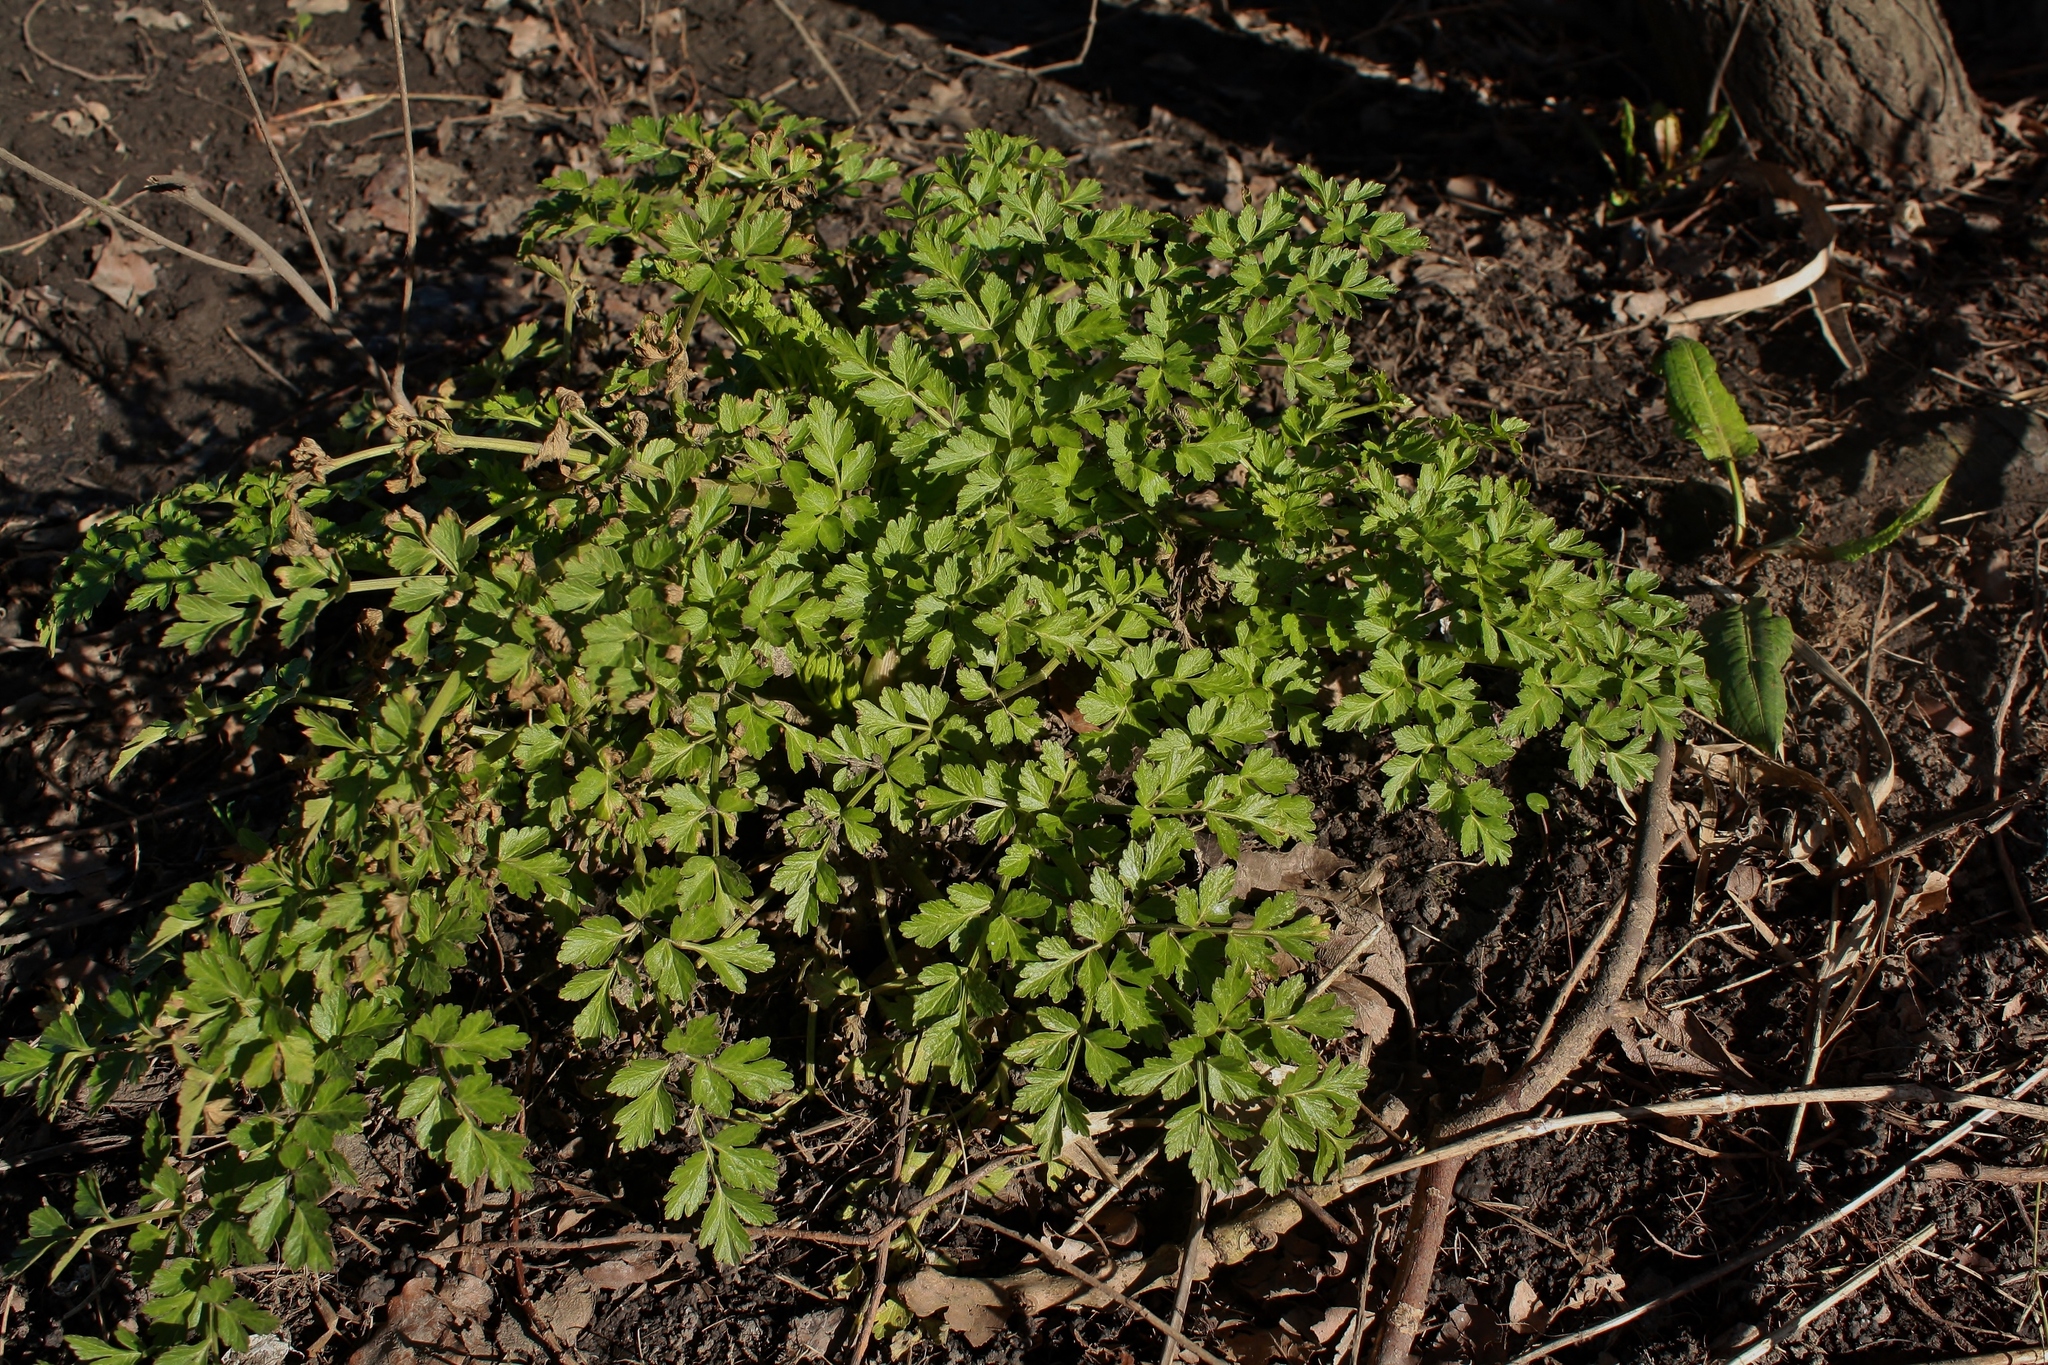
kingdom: Plantae
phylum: Tracheophyta
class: Magnoliopsida
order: Apiales
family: Apiaceae
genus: Oenanthe
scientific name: Oenanthe crocata
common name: Hemlock water-dropwort
